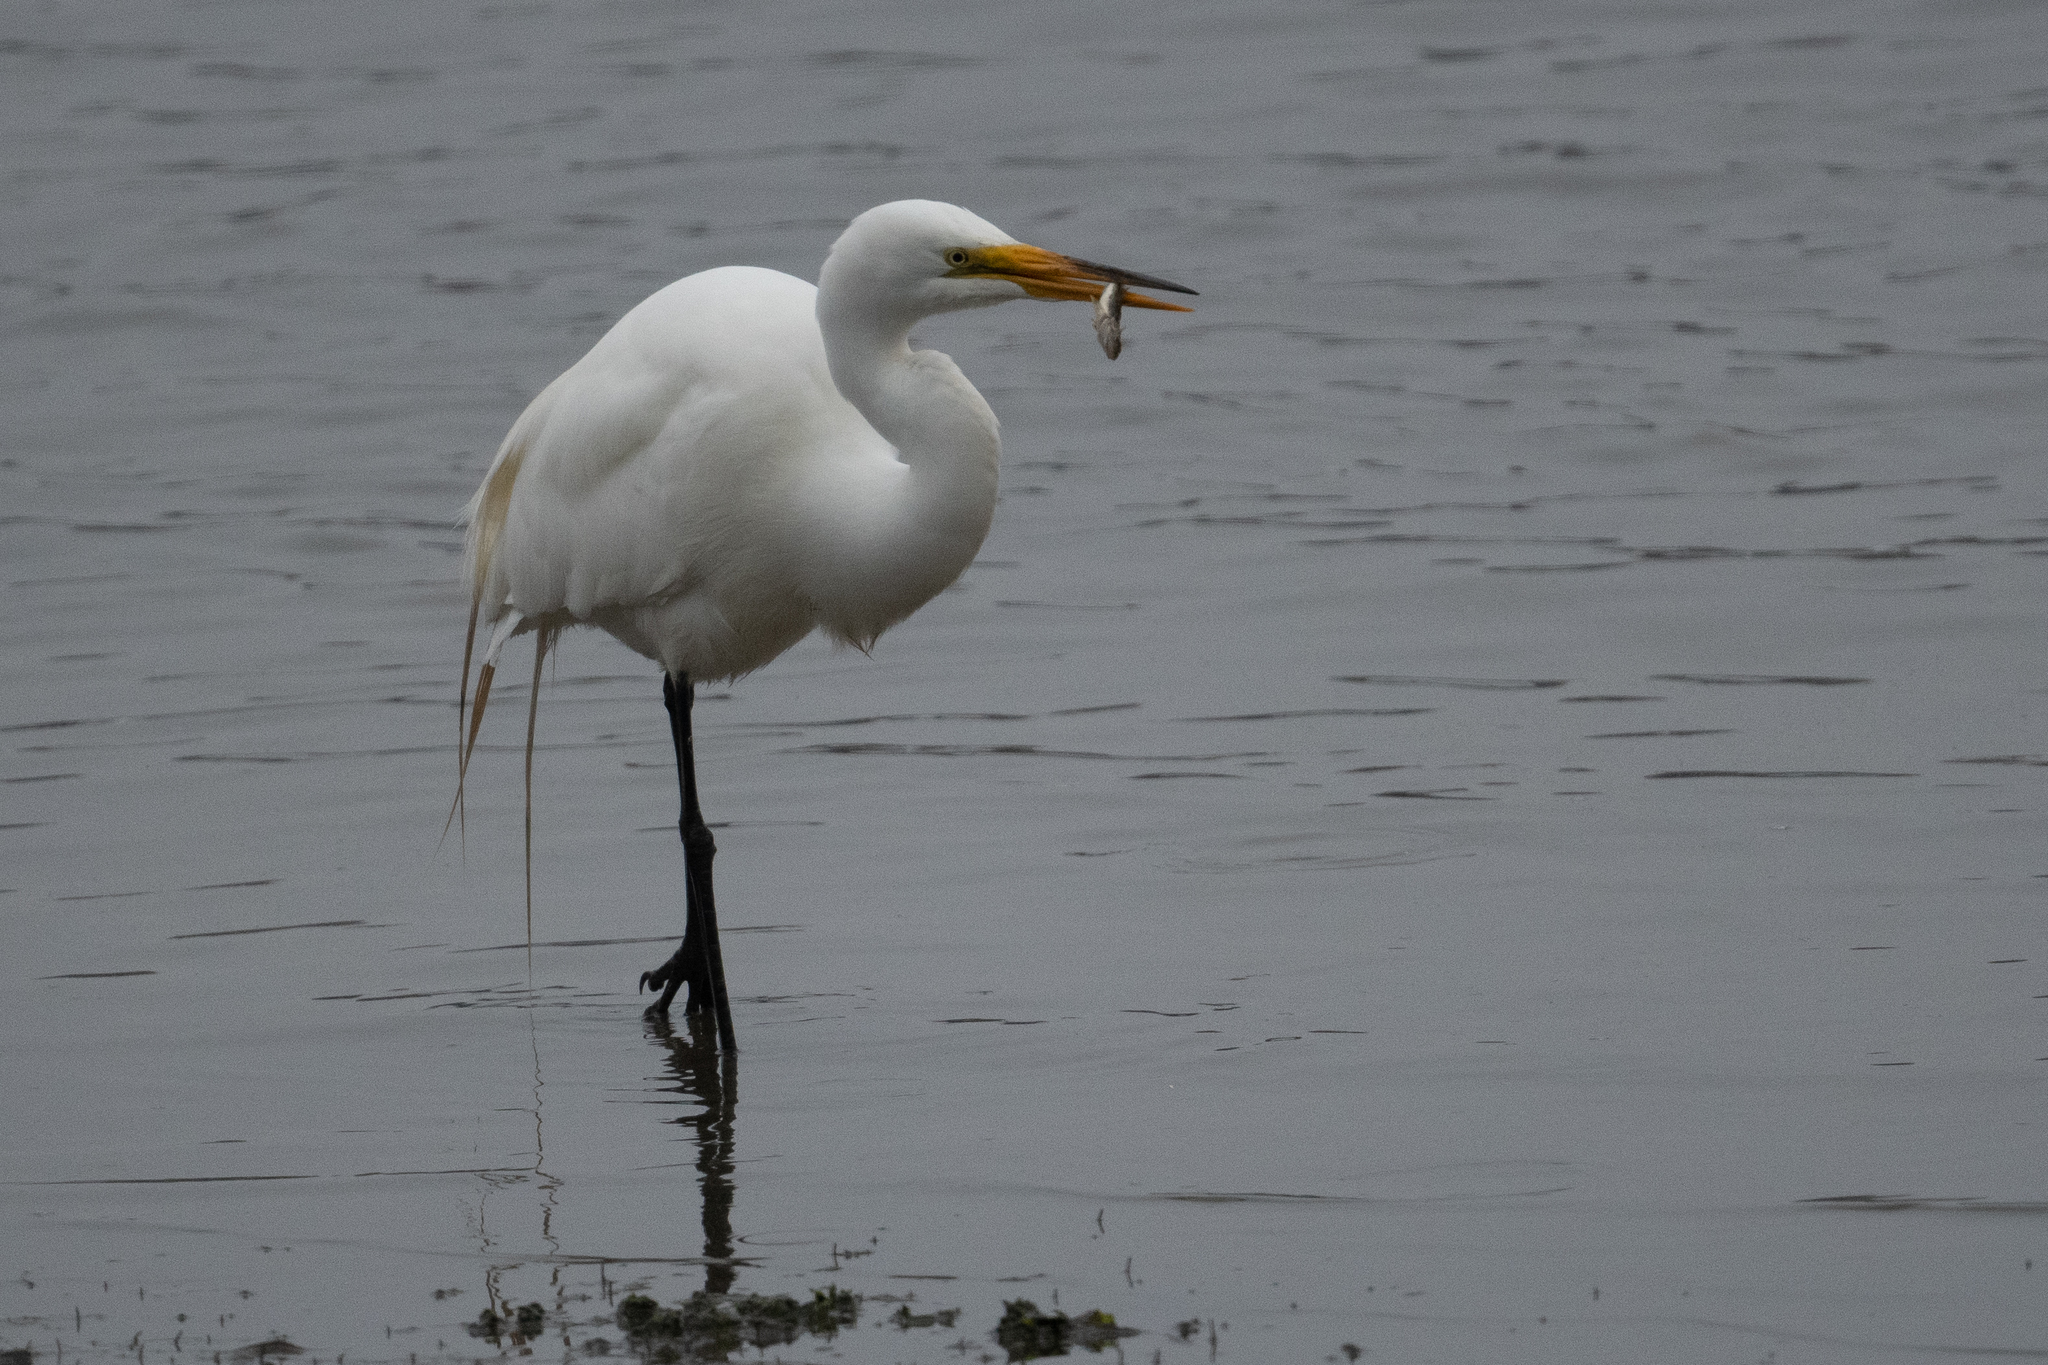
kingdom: Animalia
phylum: Chordata
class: Aves
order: Pelecaniformes
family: Ardeidae
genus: Ardea
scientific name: Ardea alba
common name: Great egret
